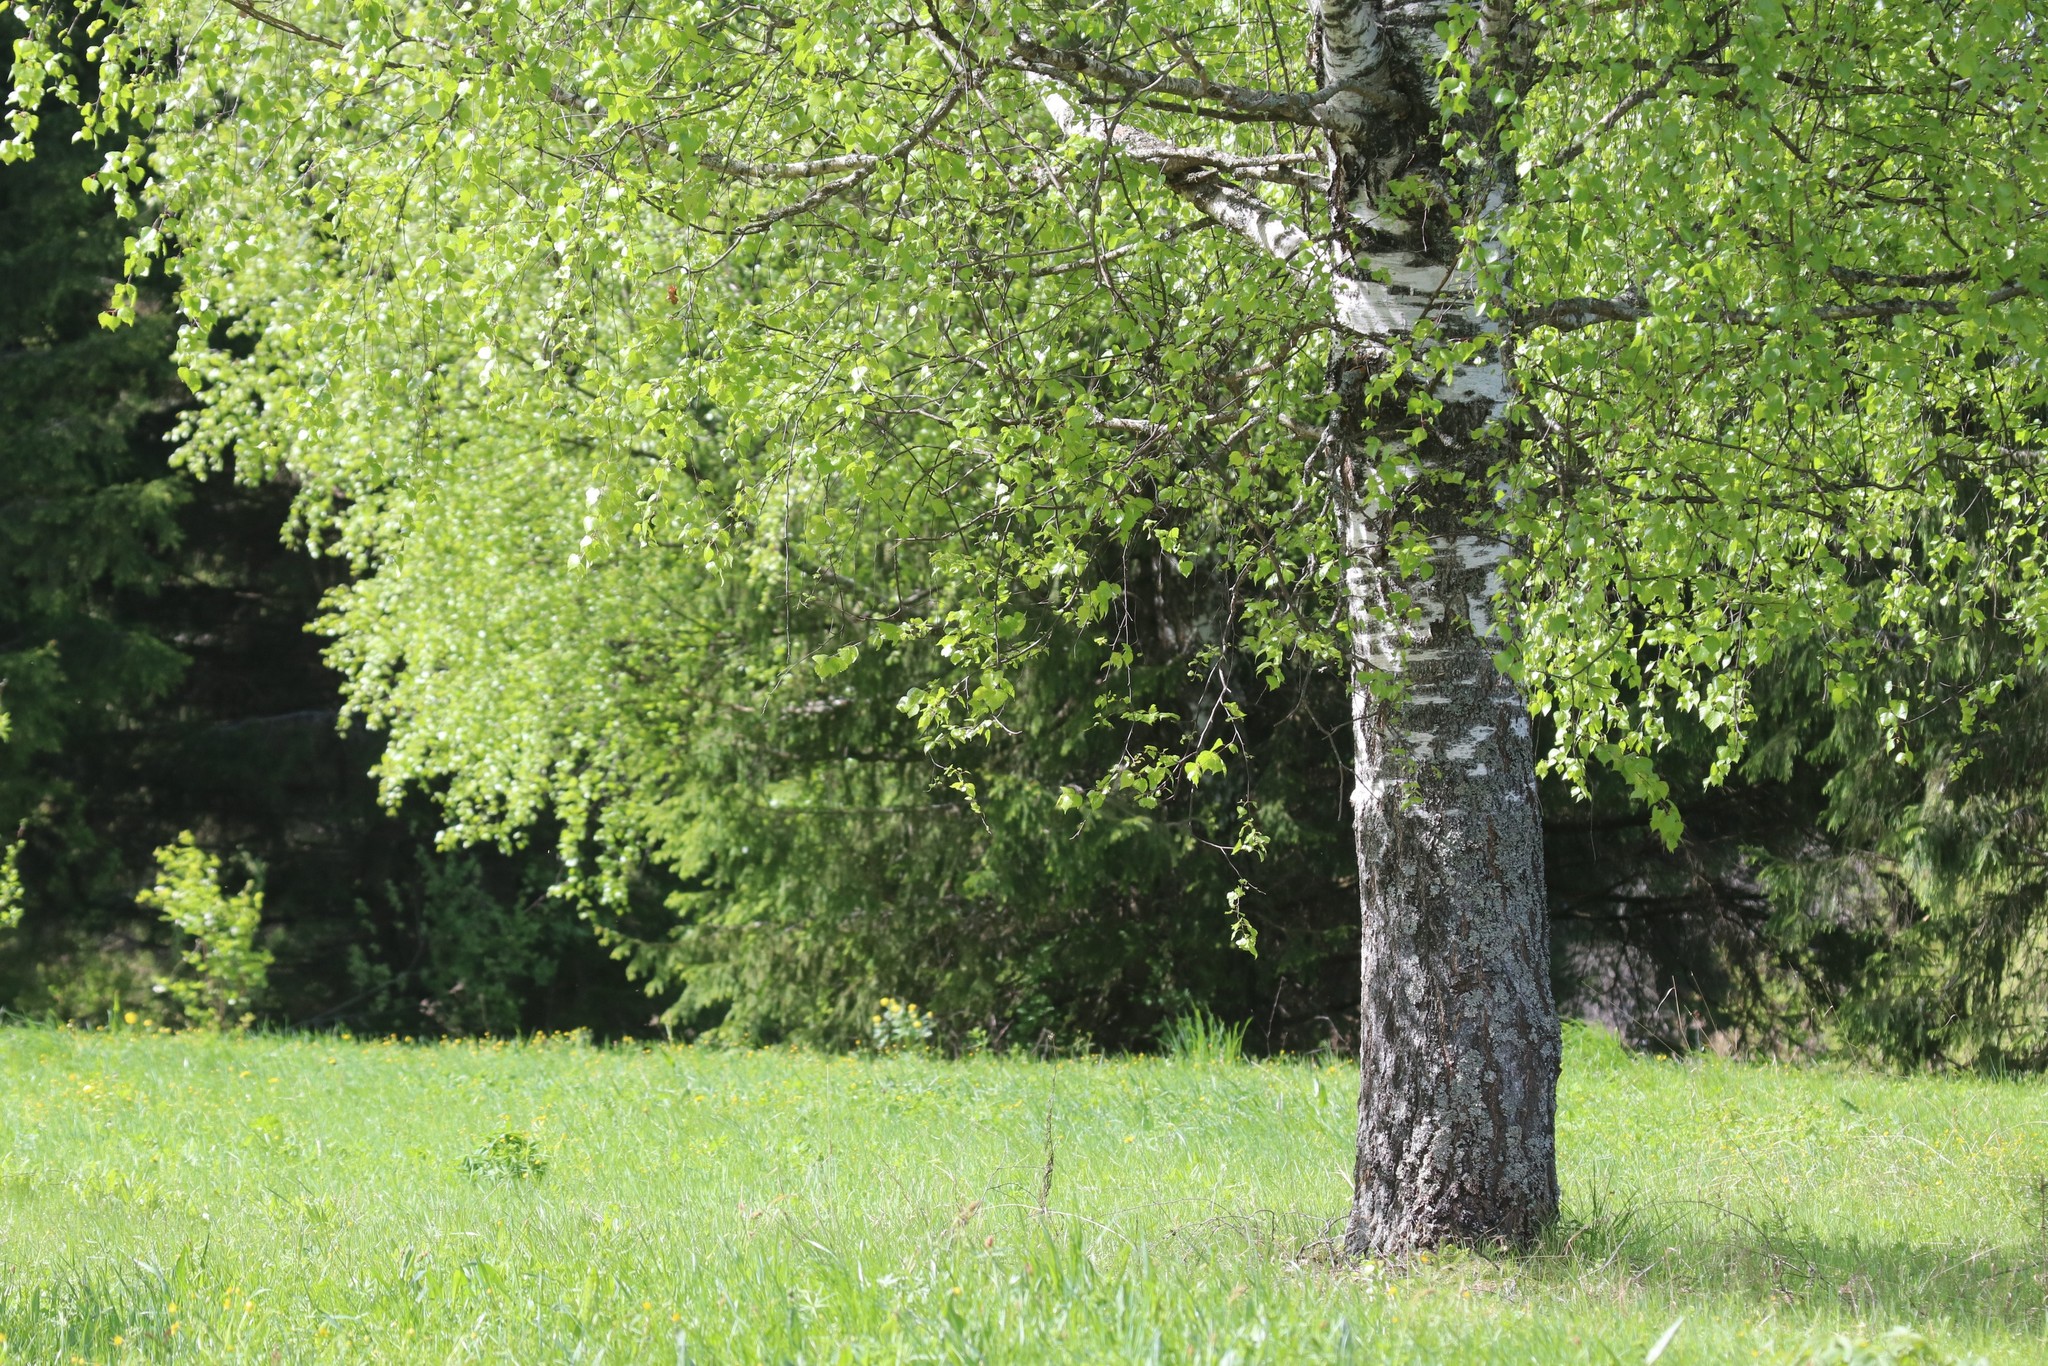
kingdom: Plantae
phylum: Tracheophyta
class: Magnoliopsida
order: Fagales
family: Betulaceae
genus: Betula
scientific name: Betula pendula
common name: Silver birch
